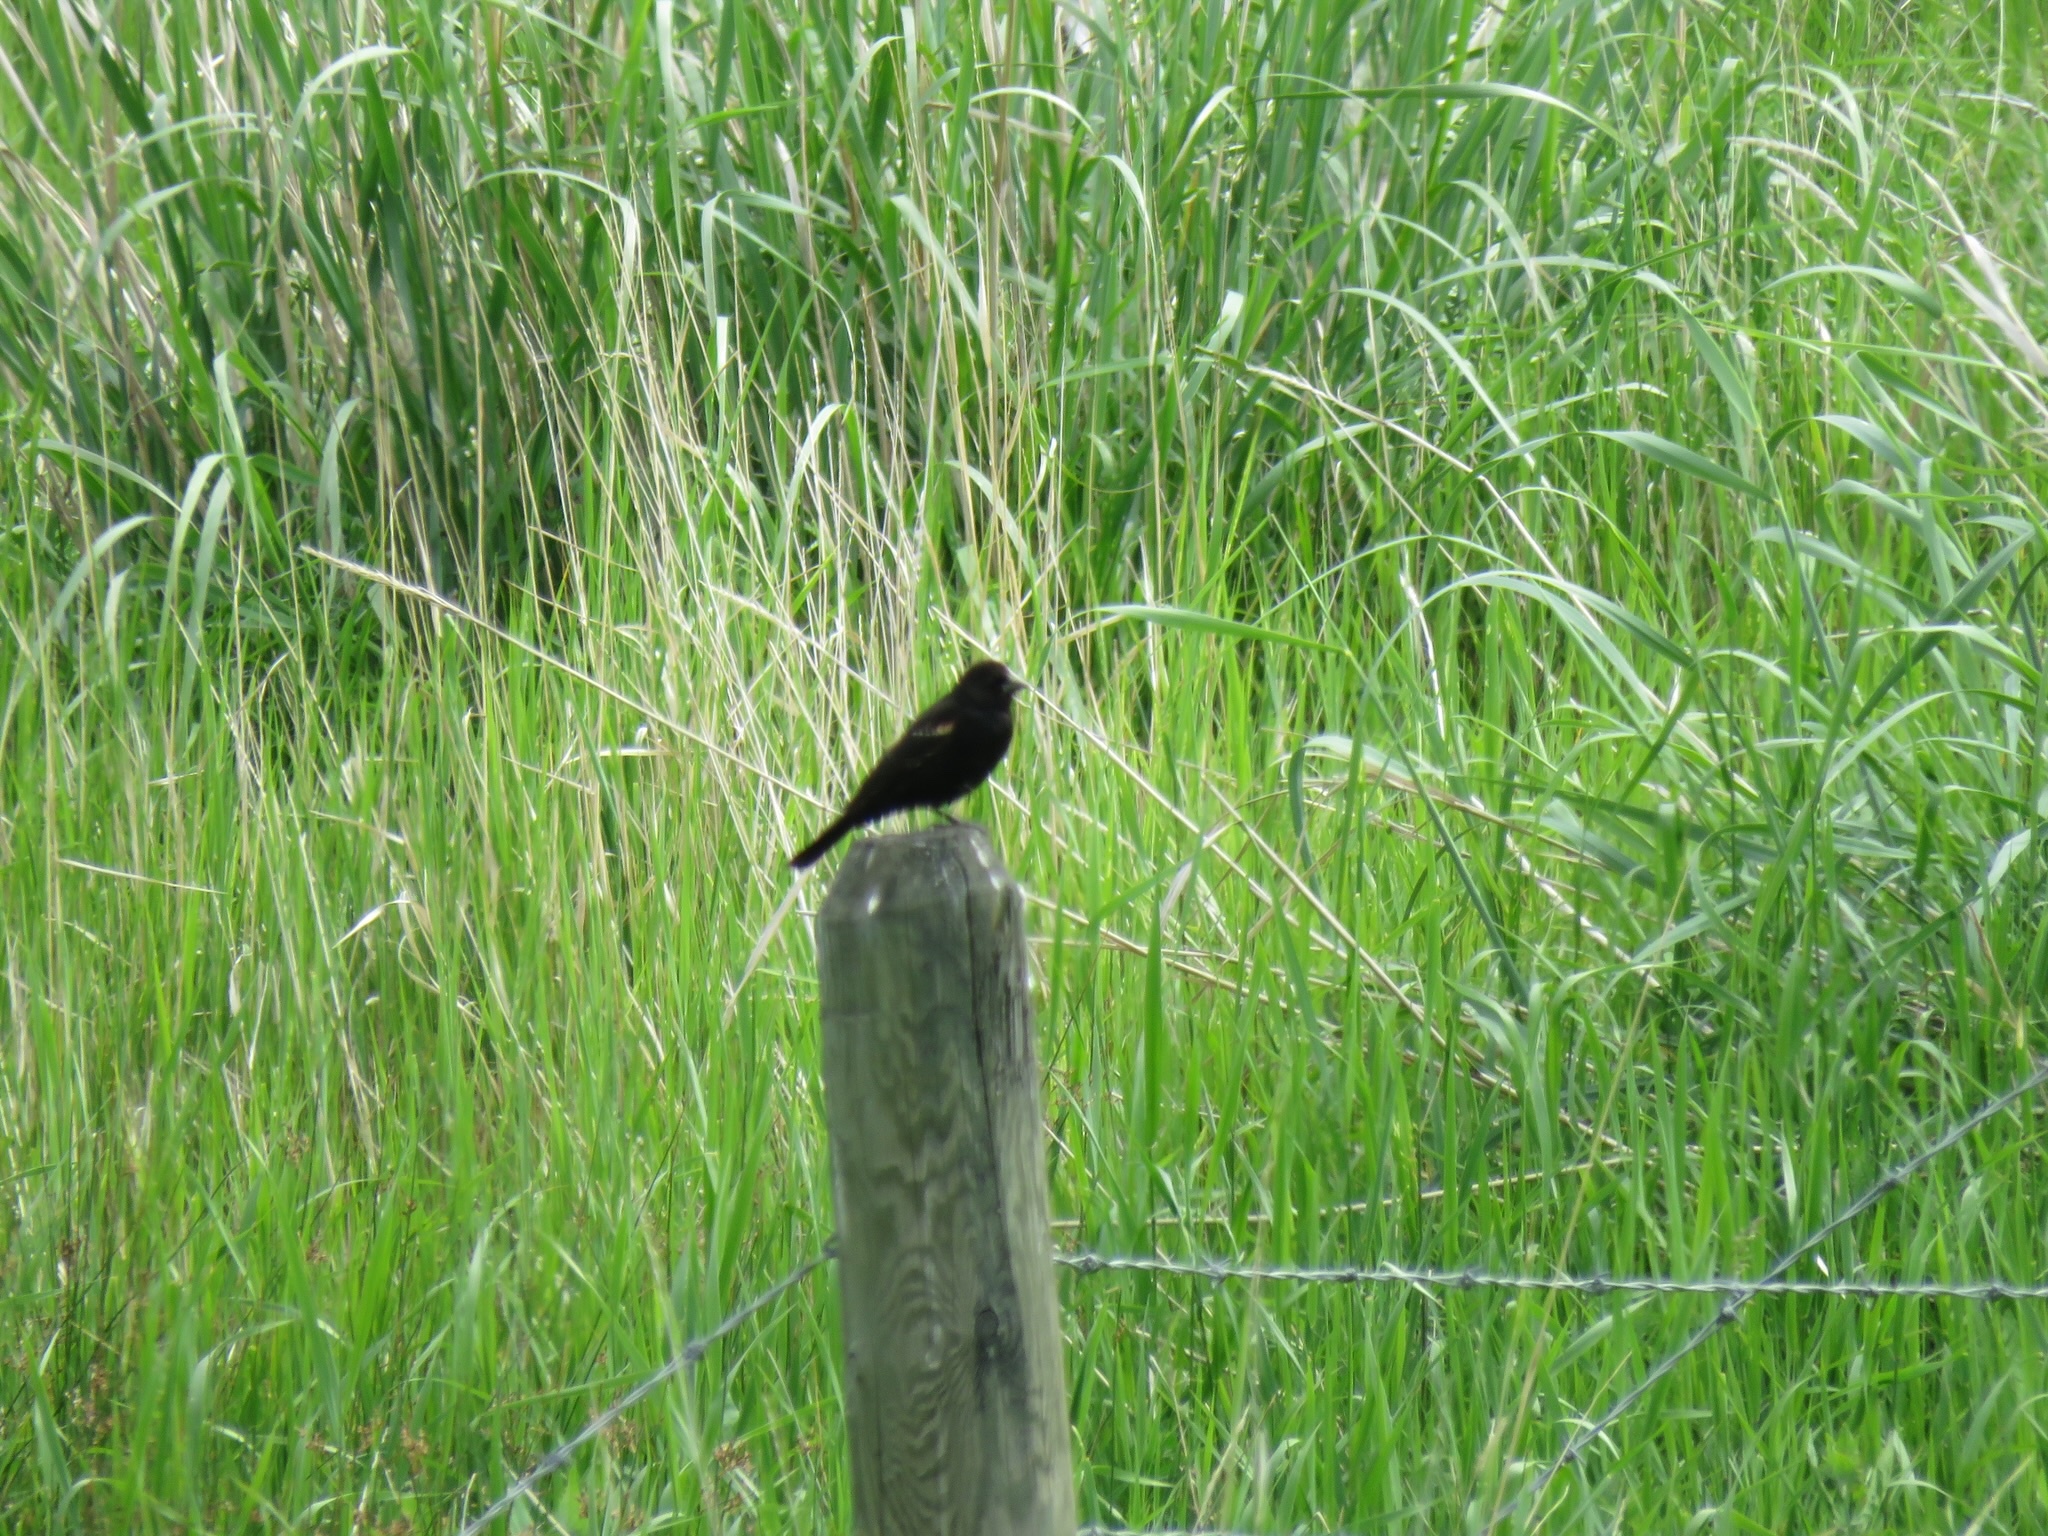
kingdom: Animalia
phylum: Chordata
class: Aves
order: Passeriformes
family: Icteridae
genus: Agelaius
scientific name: Agelaius phoeniceus
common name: Red-winged blackbird
